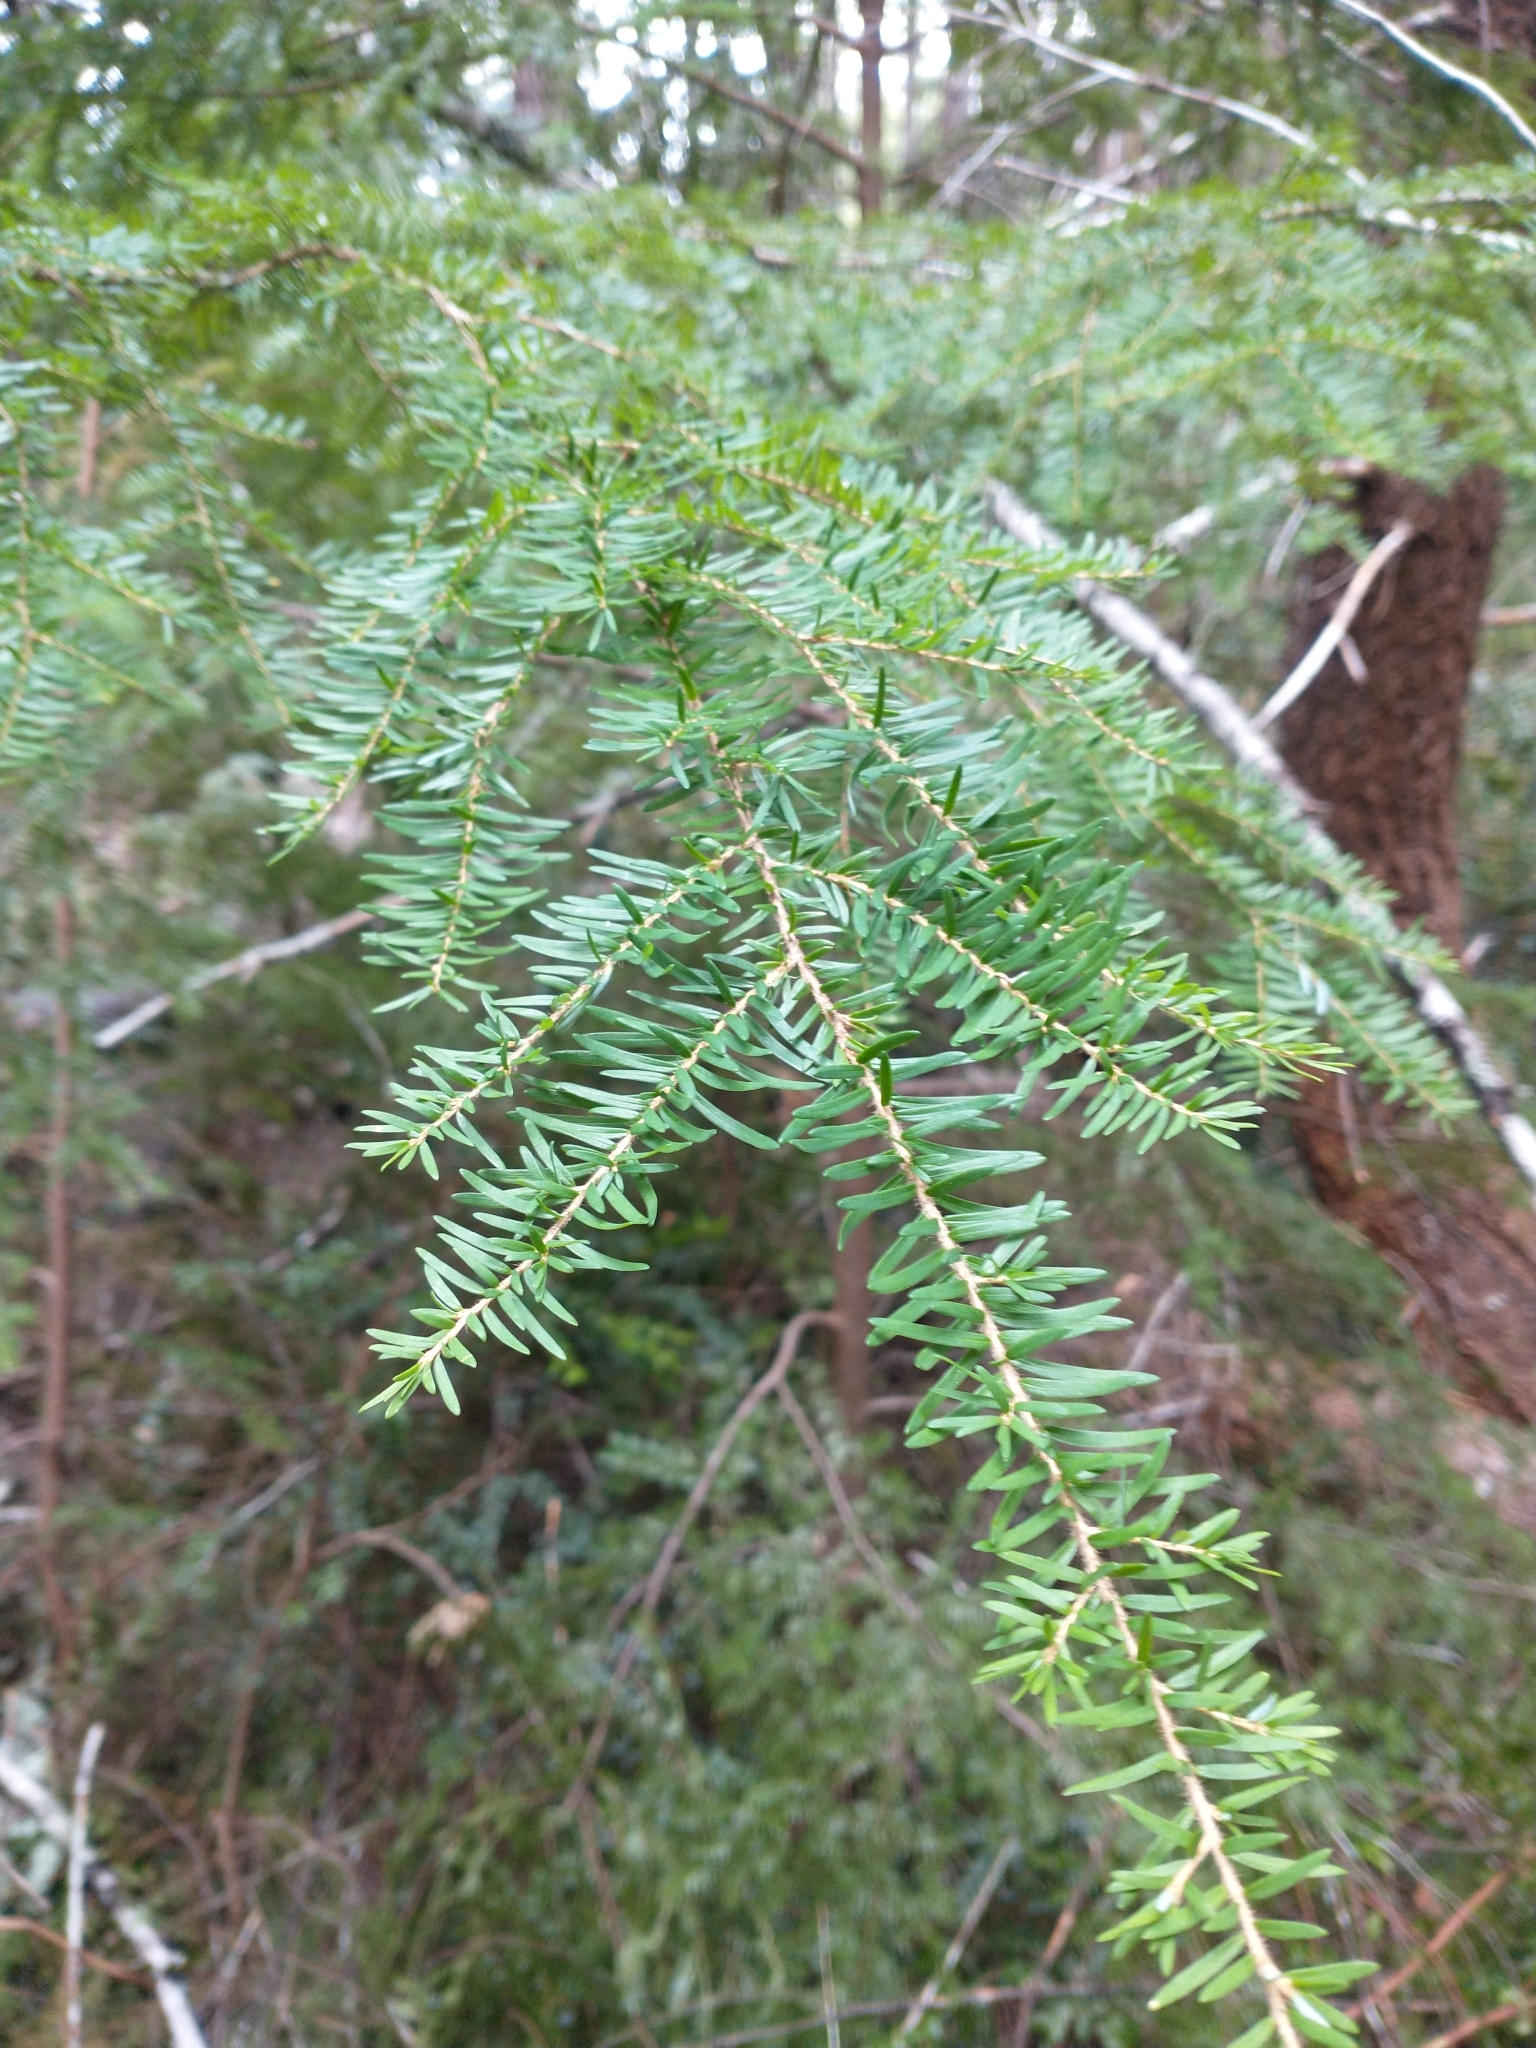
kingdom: Plantae
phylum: Tracheophyta
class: Pinopsida
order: Pinales
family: Pinaceae
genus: Tsuga
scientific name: Tsuga heterophylla
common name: Western hemlock
